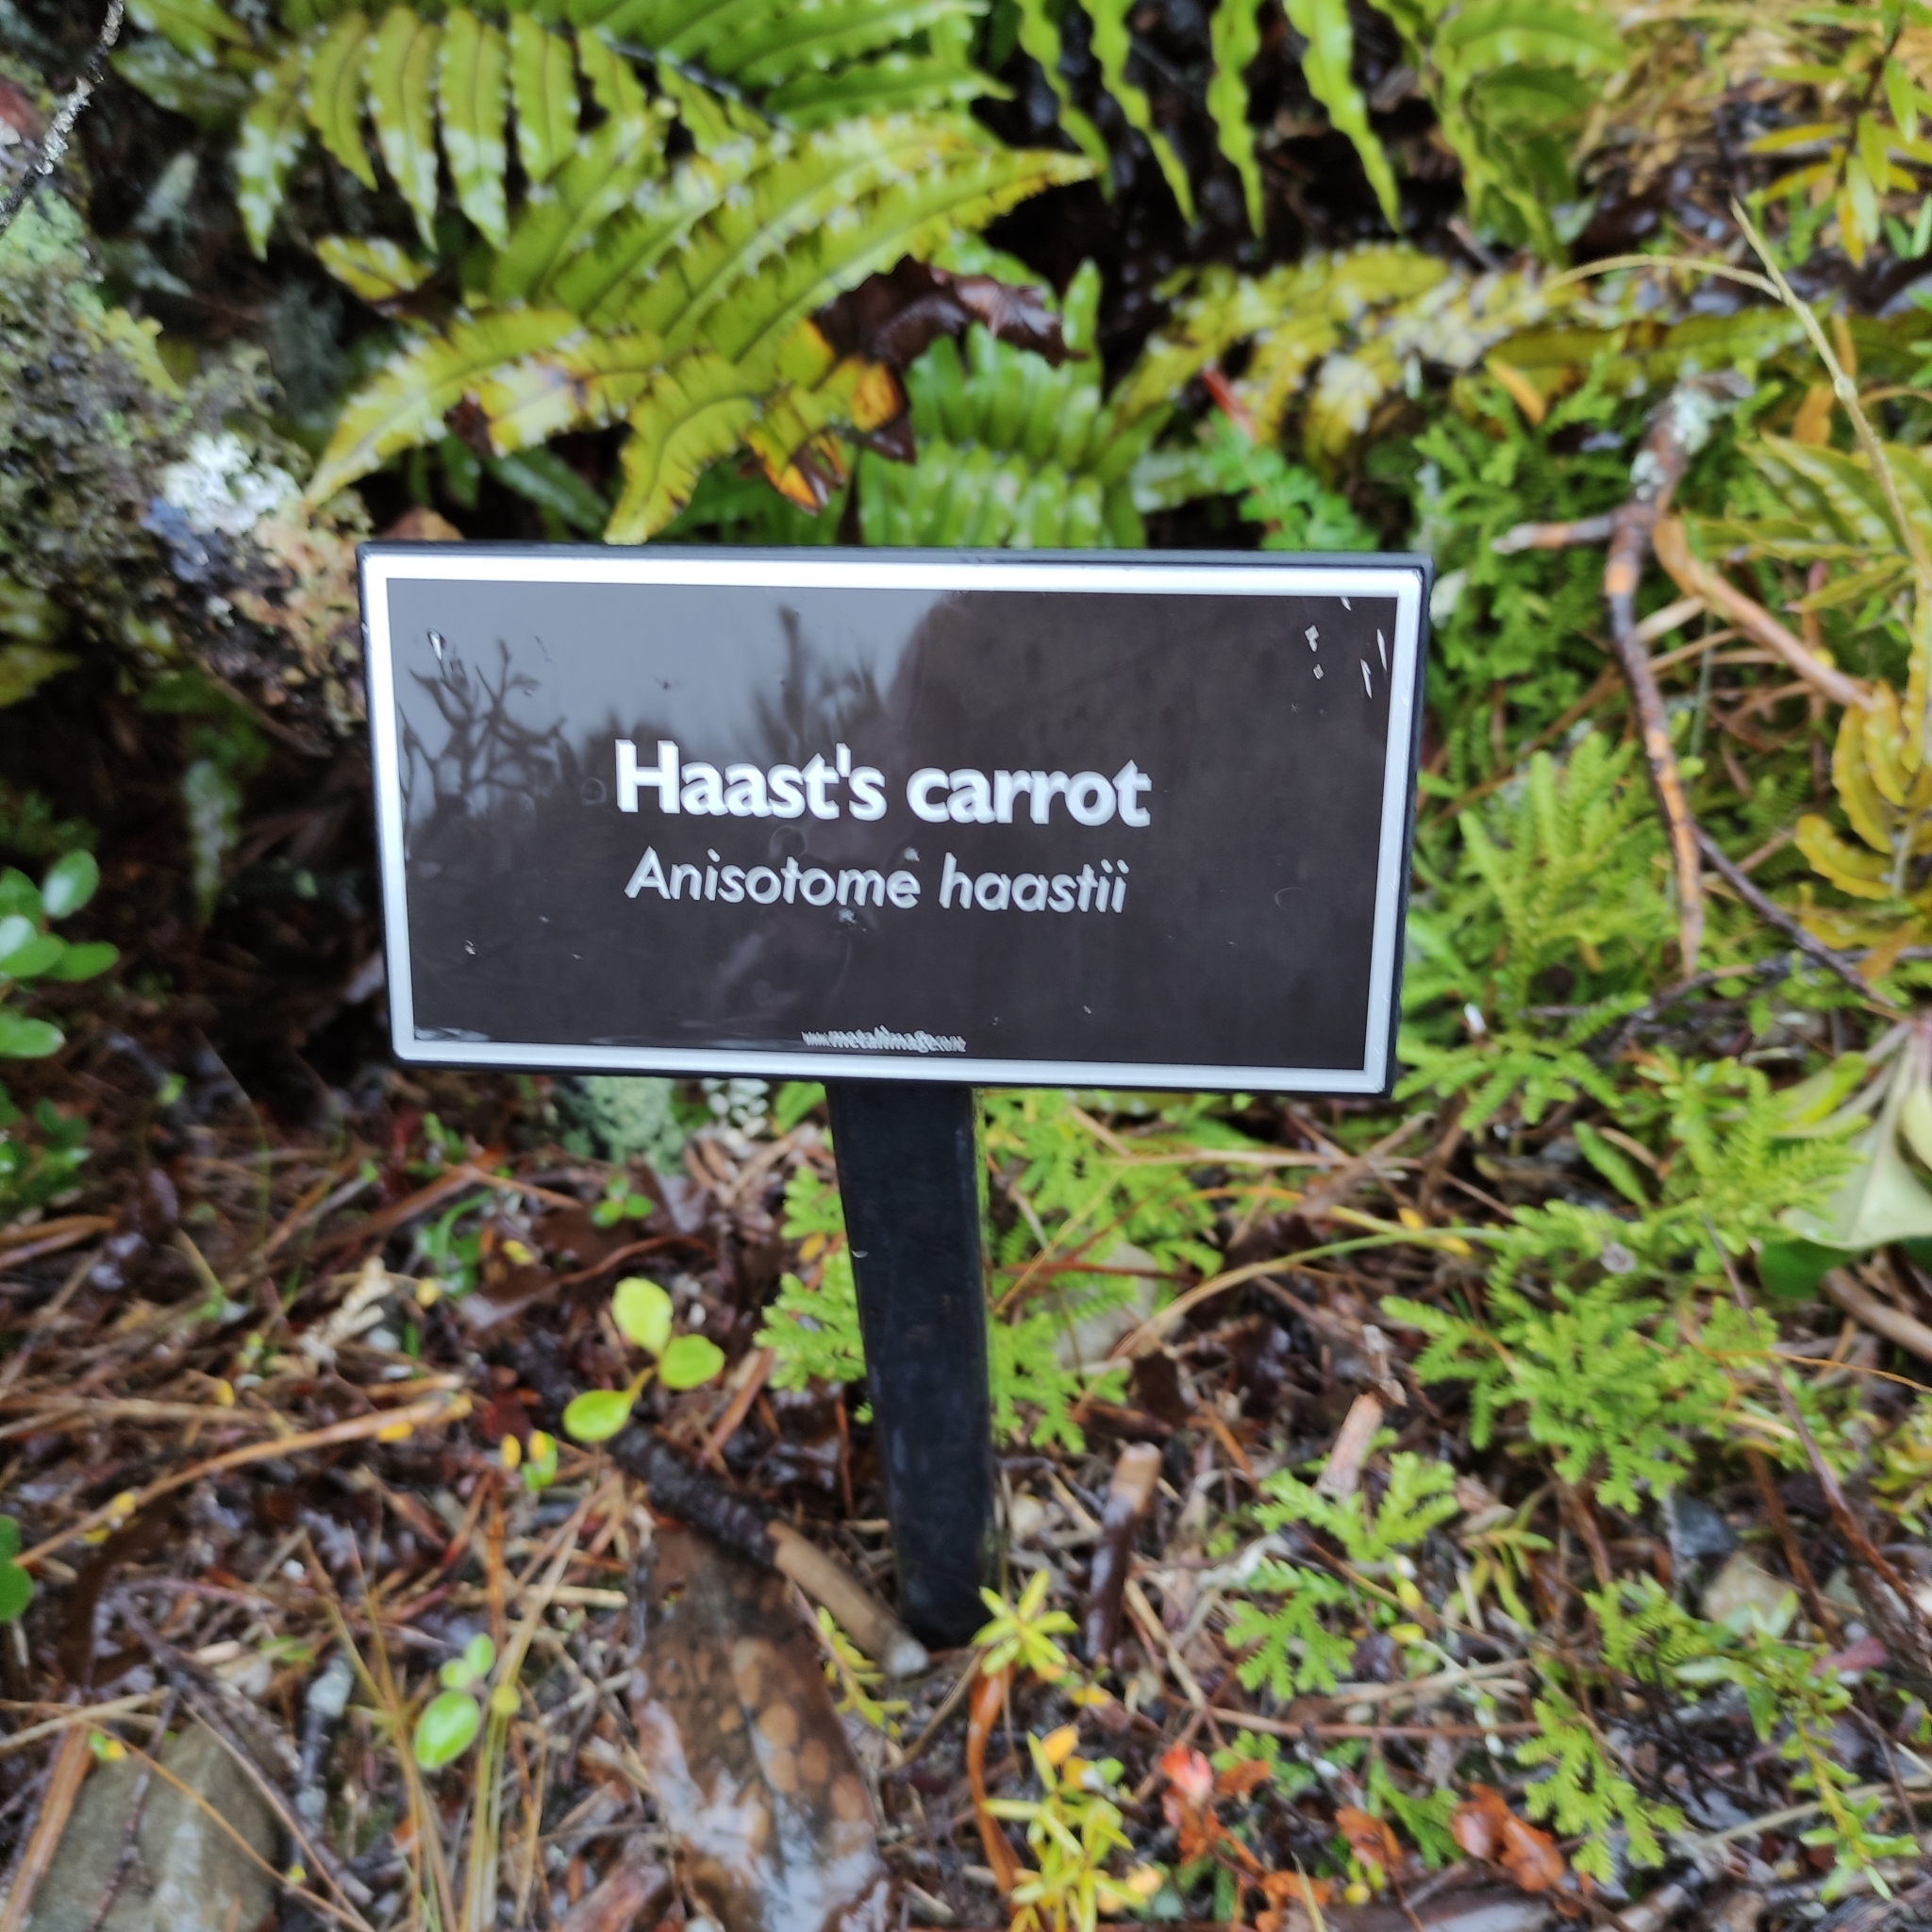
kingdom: Plantae
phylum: Tracheophyta
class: Magnoliopsida
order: Apiales
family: Apiaceae
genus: Anisotome
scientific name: Anisotome haastii
